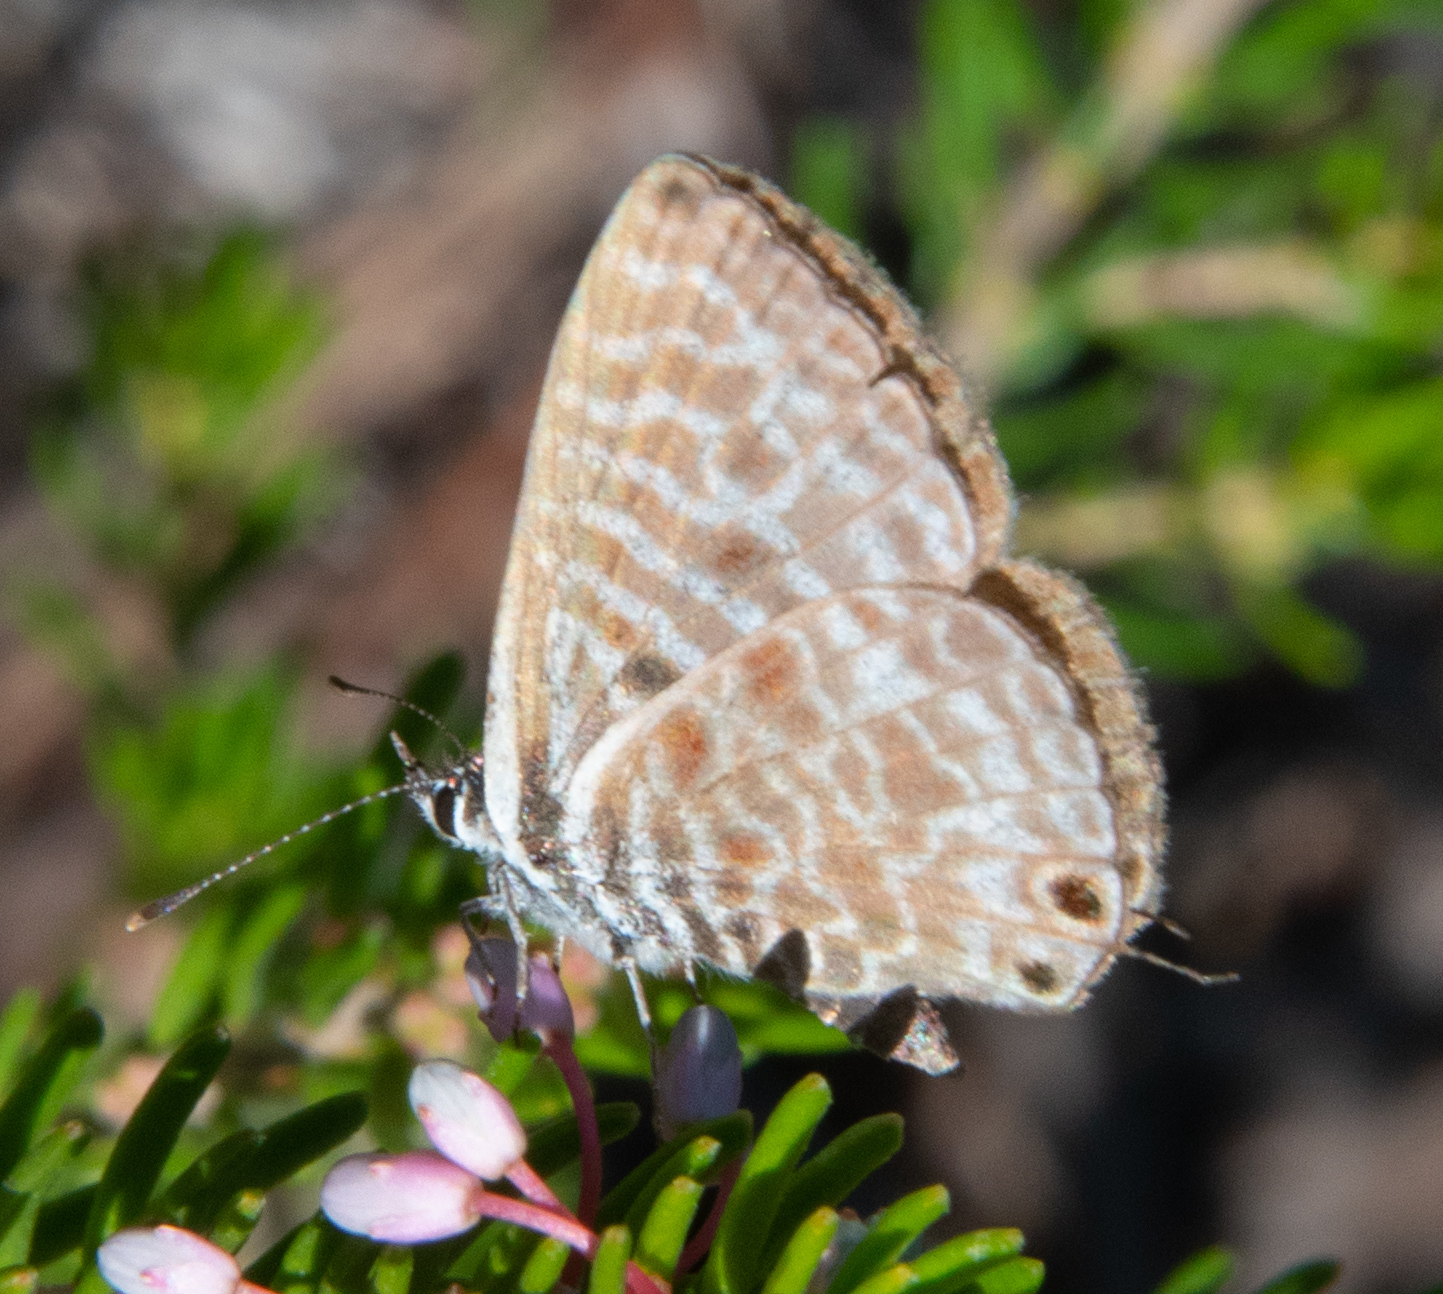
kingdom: Animalia
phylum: Arthropoda
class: Insecta
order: Lepidoptera
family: Lycaenidae
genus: Leptotes
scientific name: Leptotes pirithous
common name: Lang's short-tailed blue
